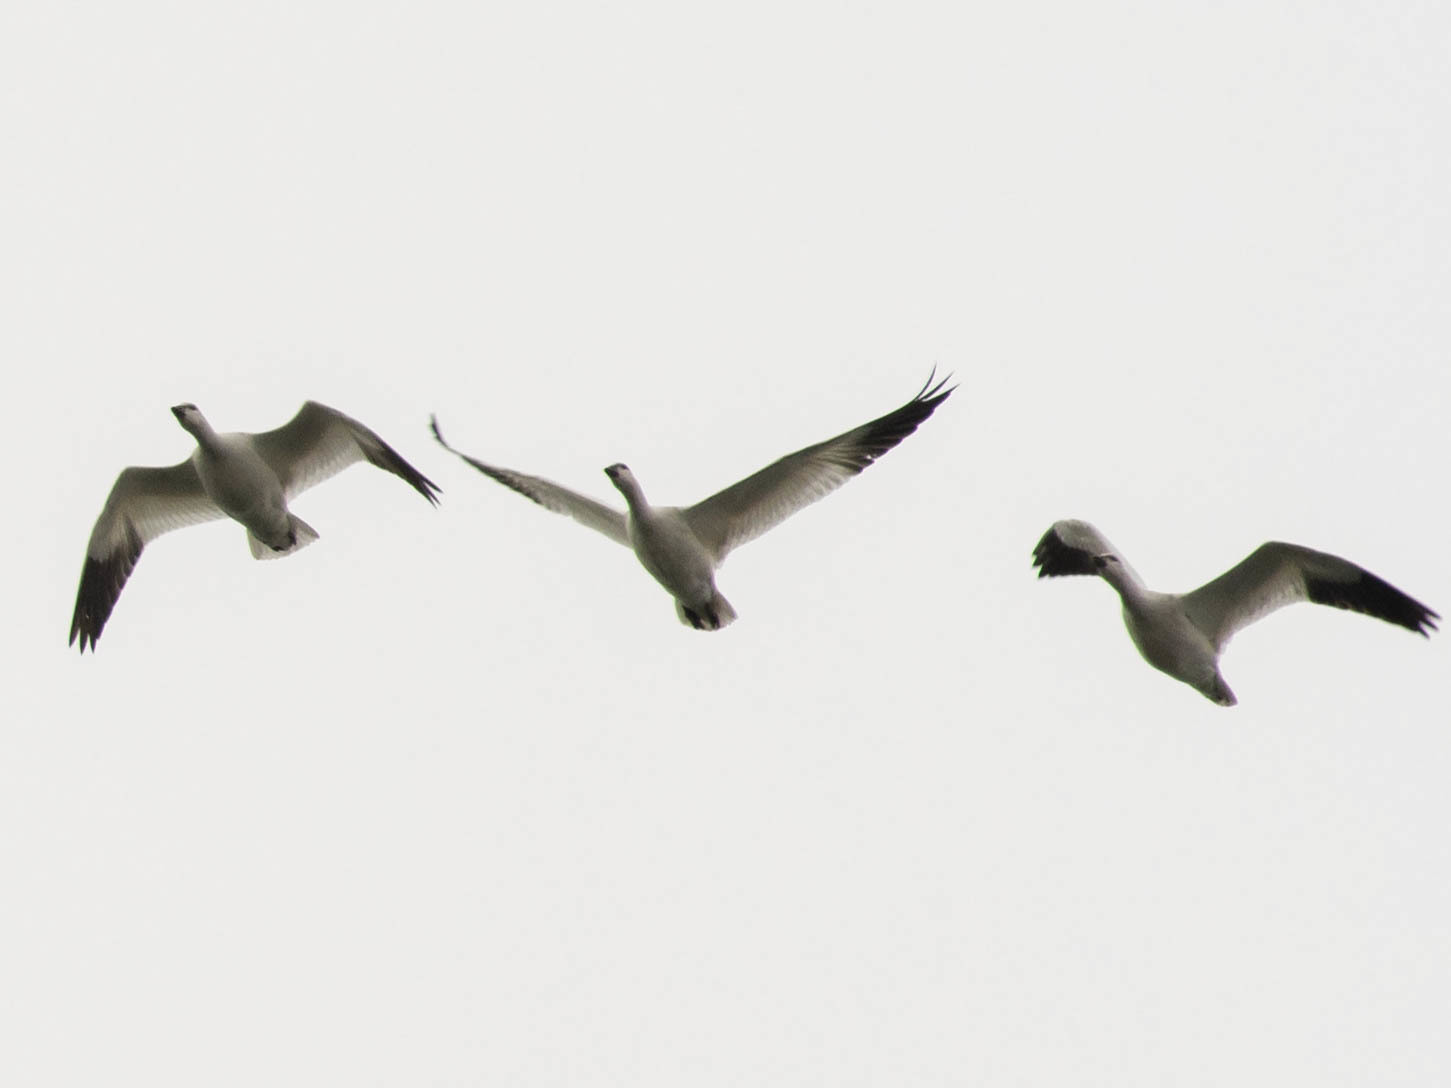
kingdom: Animalia
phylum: Chordata
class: Aves
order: Anseriformes
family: Anatidae
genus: Anser
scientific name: Anser caerulescens
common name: Snow goose
